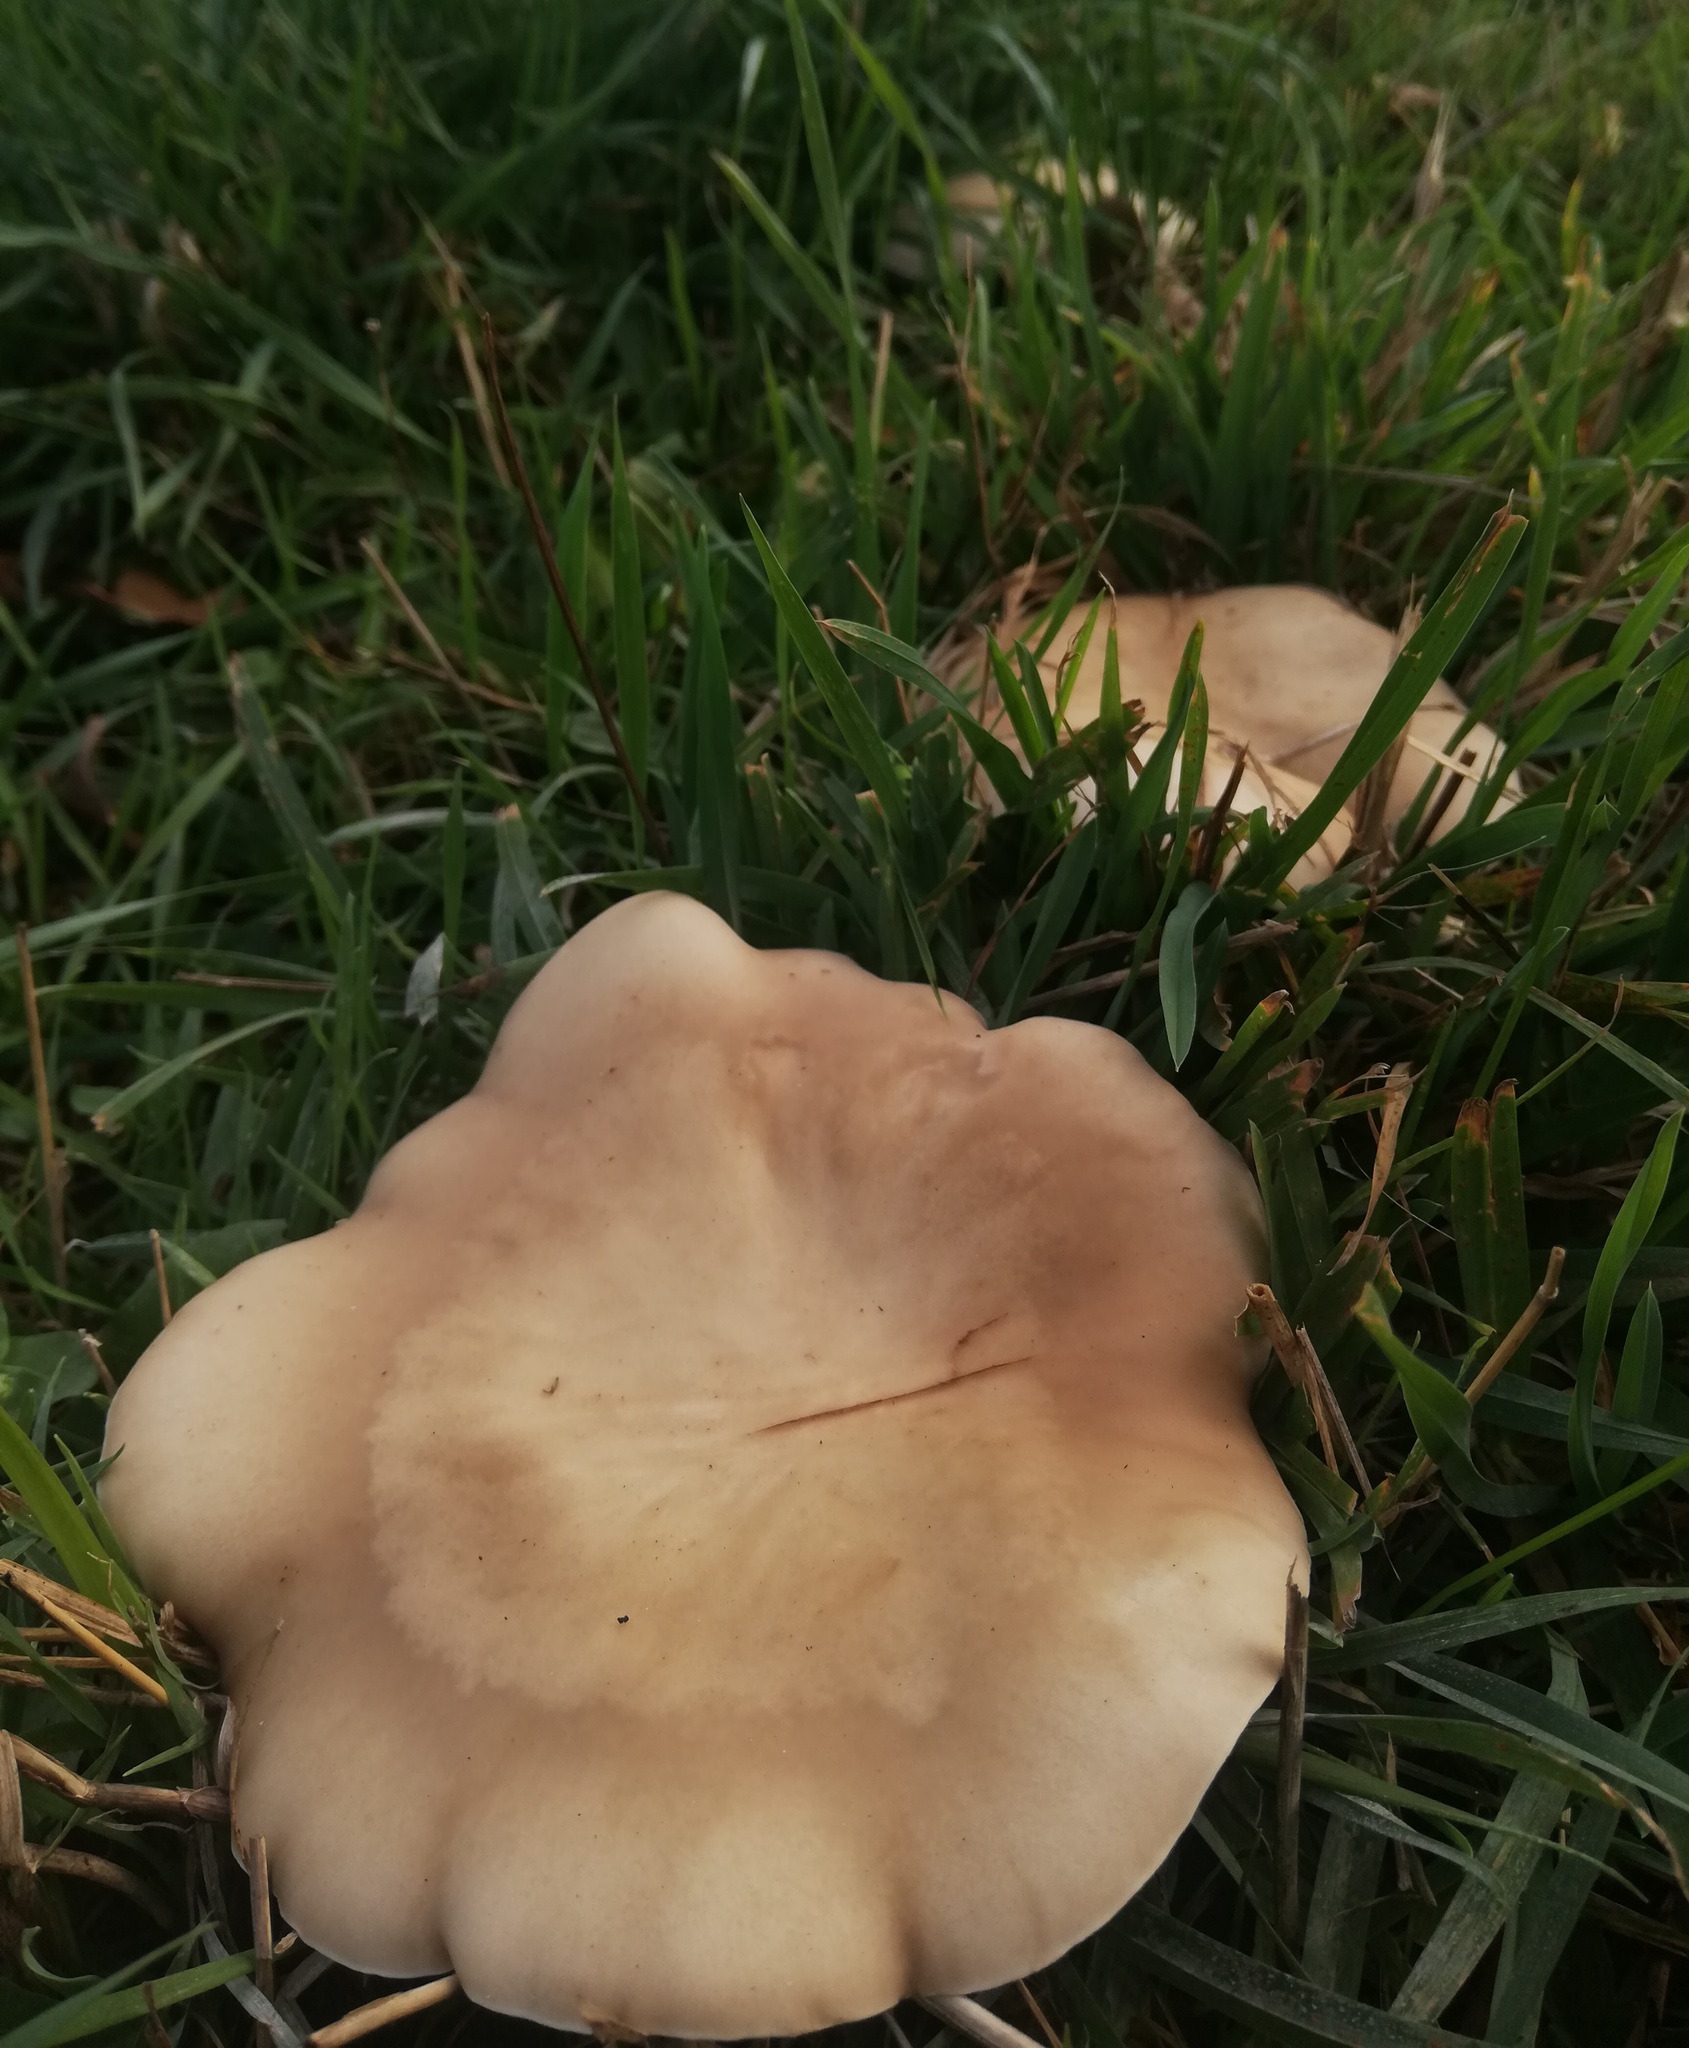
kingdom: Fungi
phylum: Basidiomycota
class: Agaricomycetes
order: Agaricales
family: Omphalotaceae
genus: Collybiopsis
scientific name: Collybiopsis peronata
